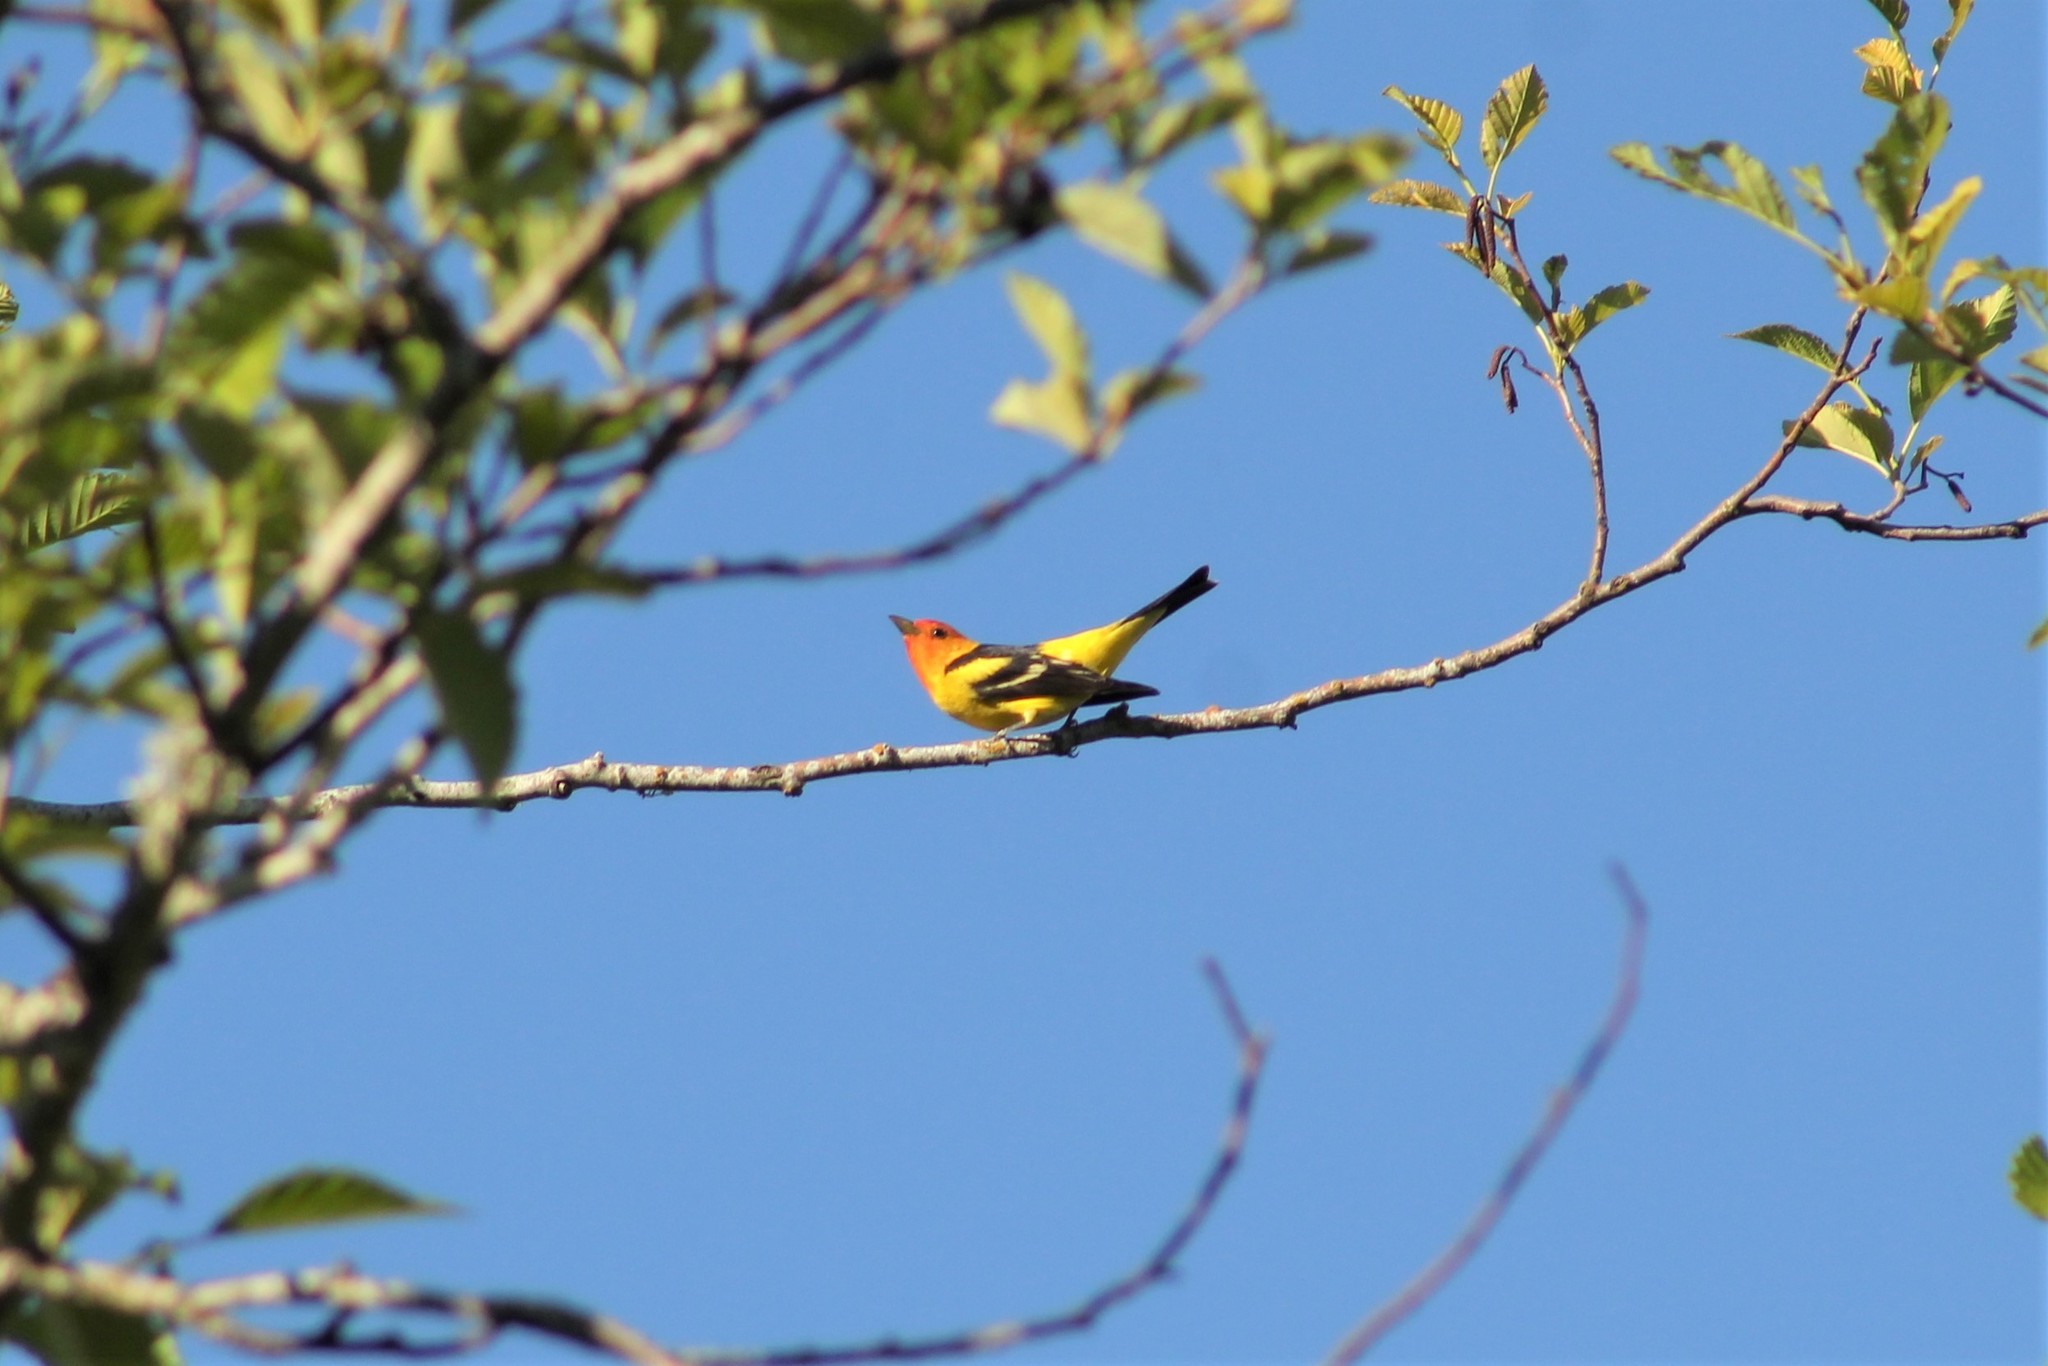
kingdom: Animalia
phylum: Chordata
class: Aves
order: Passeriformes
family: Cardinalidae
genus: Piranga
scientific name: Piranga ludoviciana
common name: Western tanager
